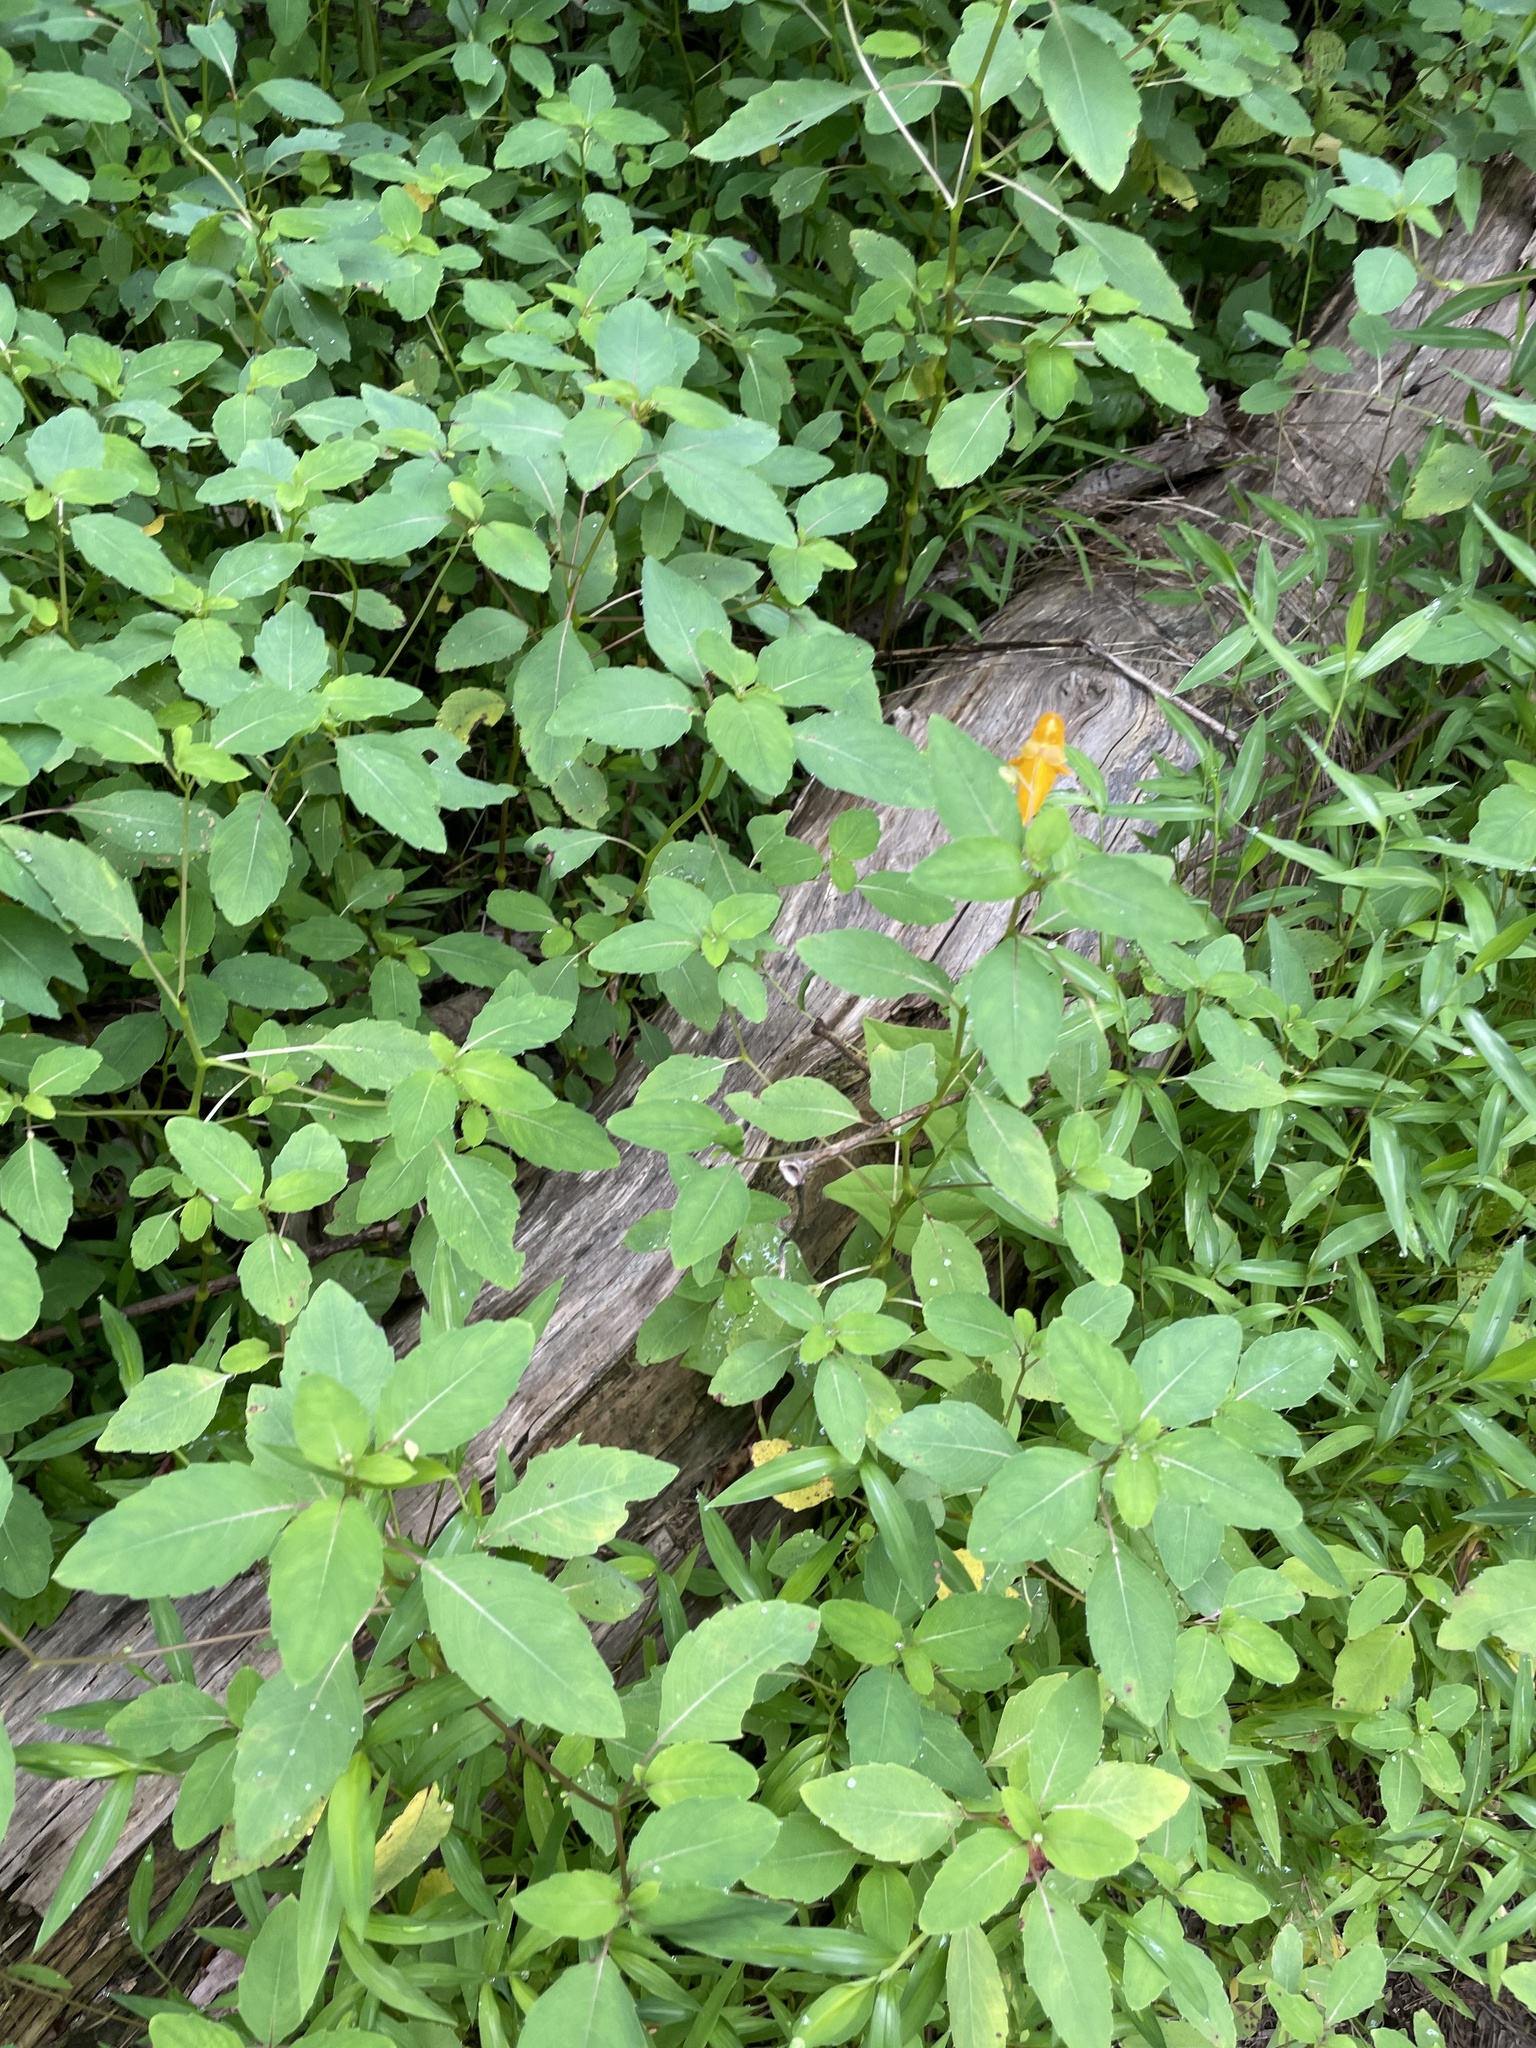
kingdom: Plantae
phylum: Tracheophyta
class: Magnoliopsida
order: Ericales
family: Balsaminaceae
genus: Impatiens
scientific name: Impatiens capensis
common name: Orange balsam
